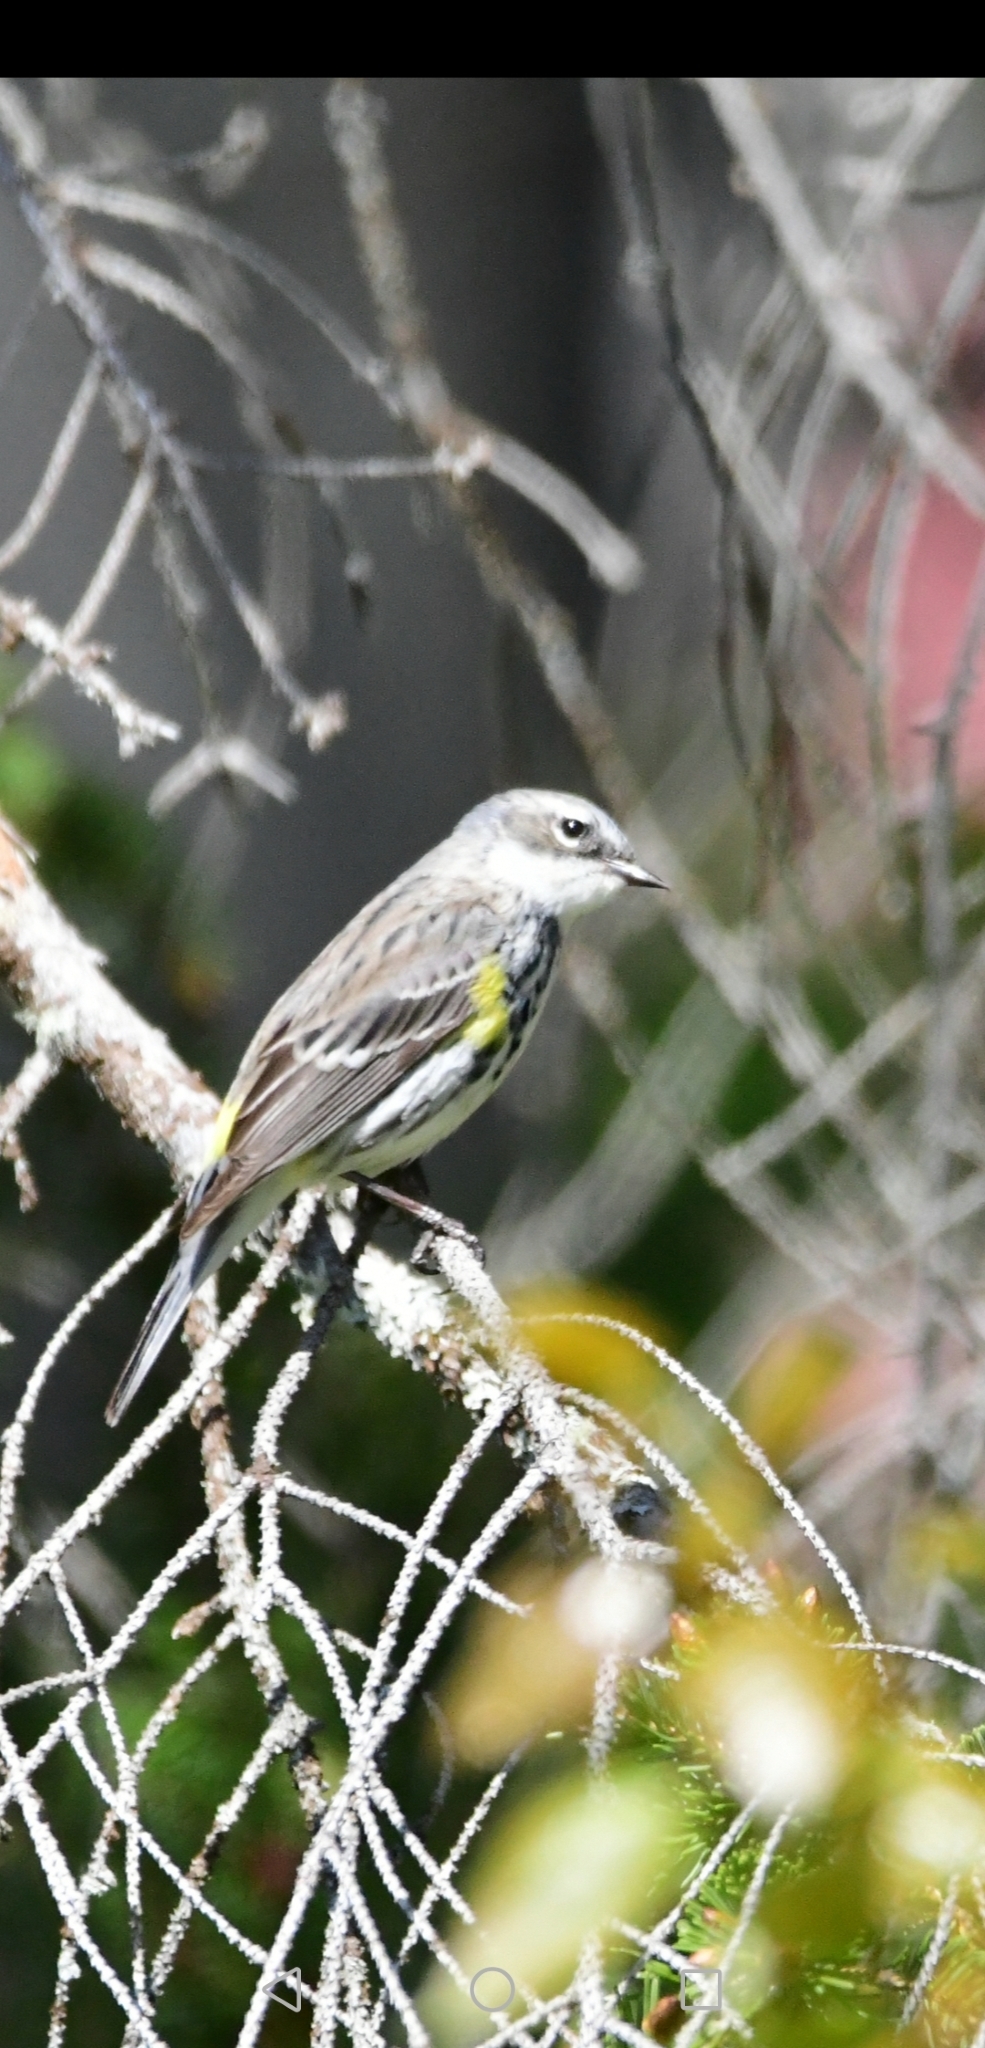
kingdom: Animalia
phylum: Chordata
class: Aves
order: Passeriformes
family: Parulidae
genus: Setophaga
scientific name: Setophaga coronata
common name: Myrtle warbler
